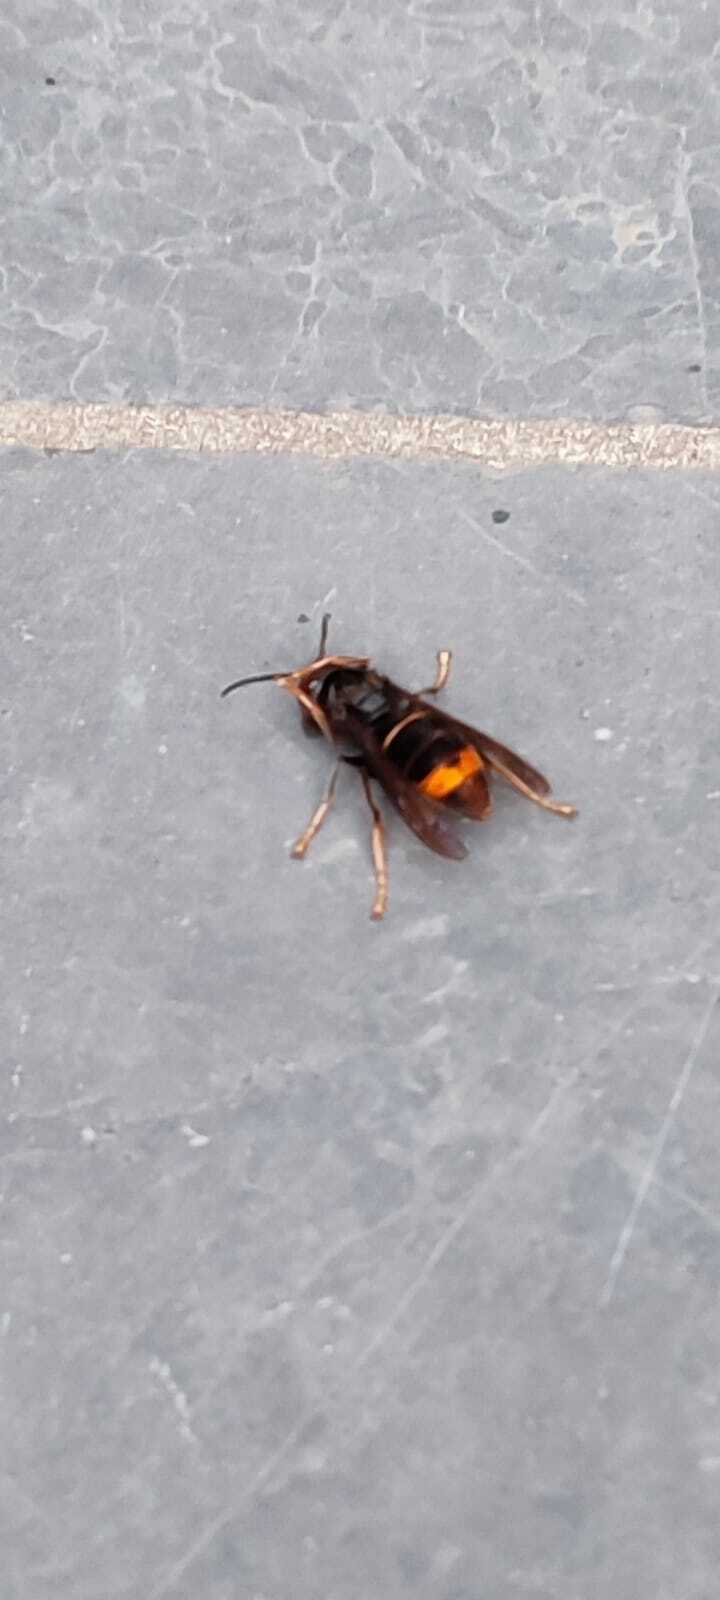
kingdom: Animalia
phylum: Arthropoda
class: Insecta
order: Hymenoptera
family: Vespidae
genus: Vespa
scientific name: Vespa velutina
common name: Asian hornet
